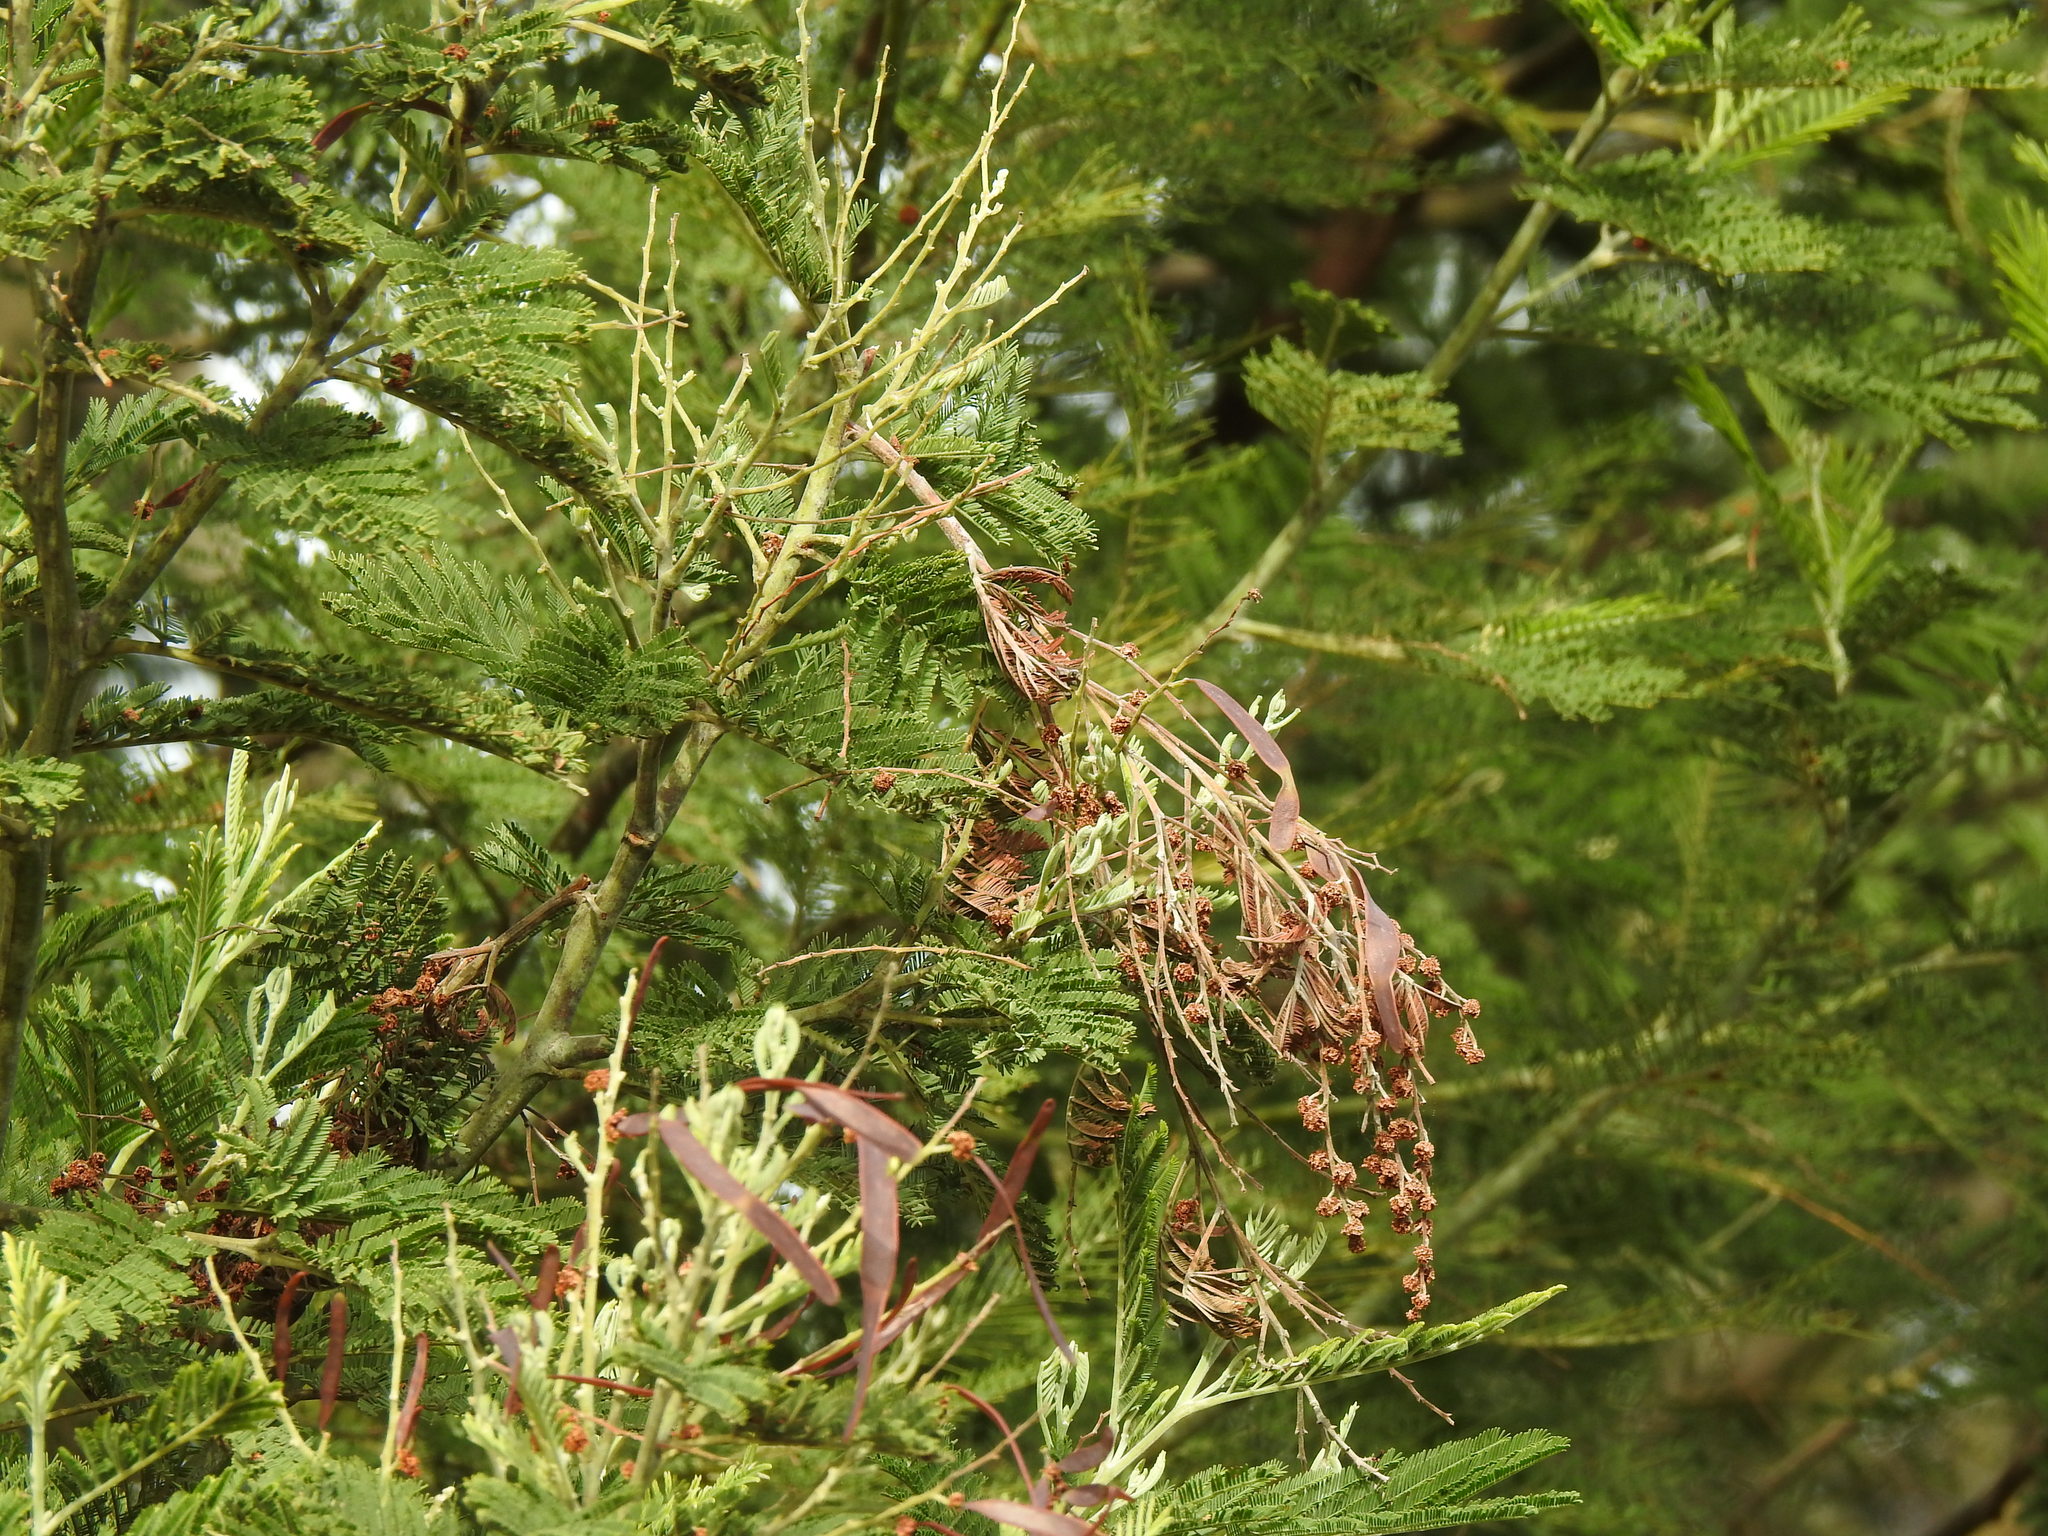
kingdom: Plantae
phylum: Tracheophyta
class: Magnoliopsida
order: Fabales
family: Fabaceae
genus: Acacia
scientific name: Acacia dealbata
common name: Silver wattle
